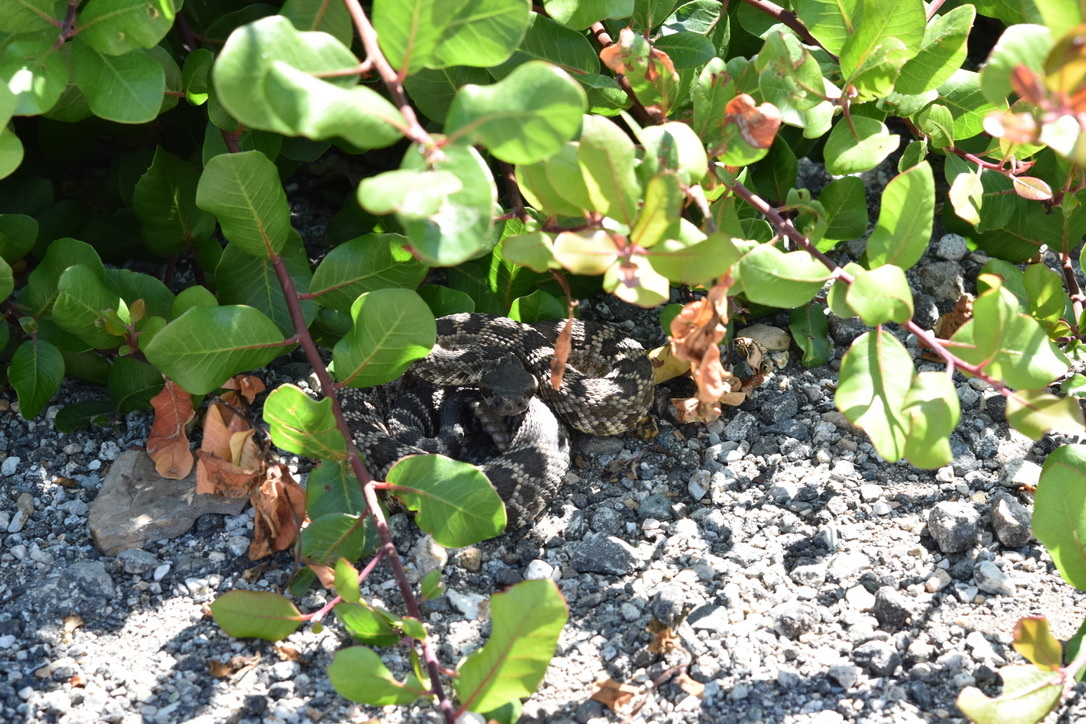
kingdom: Animalia
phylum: Chordata
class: Squamata
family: Viperidae
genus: Crotalus
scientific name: Crotalus oreganus
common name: Abyssus
